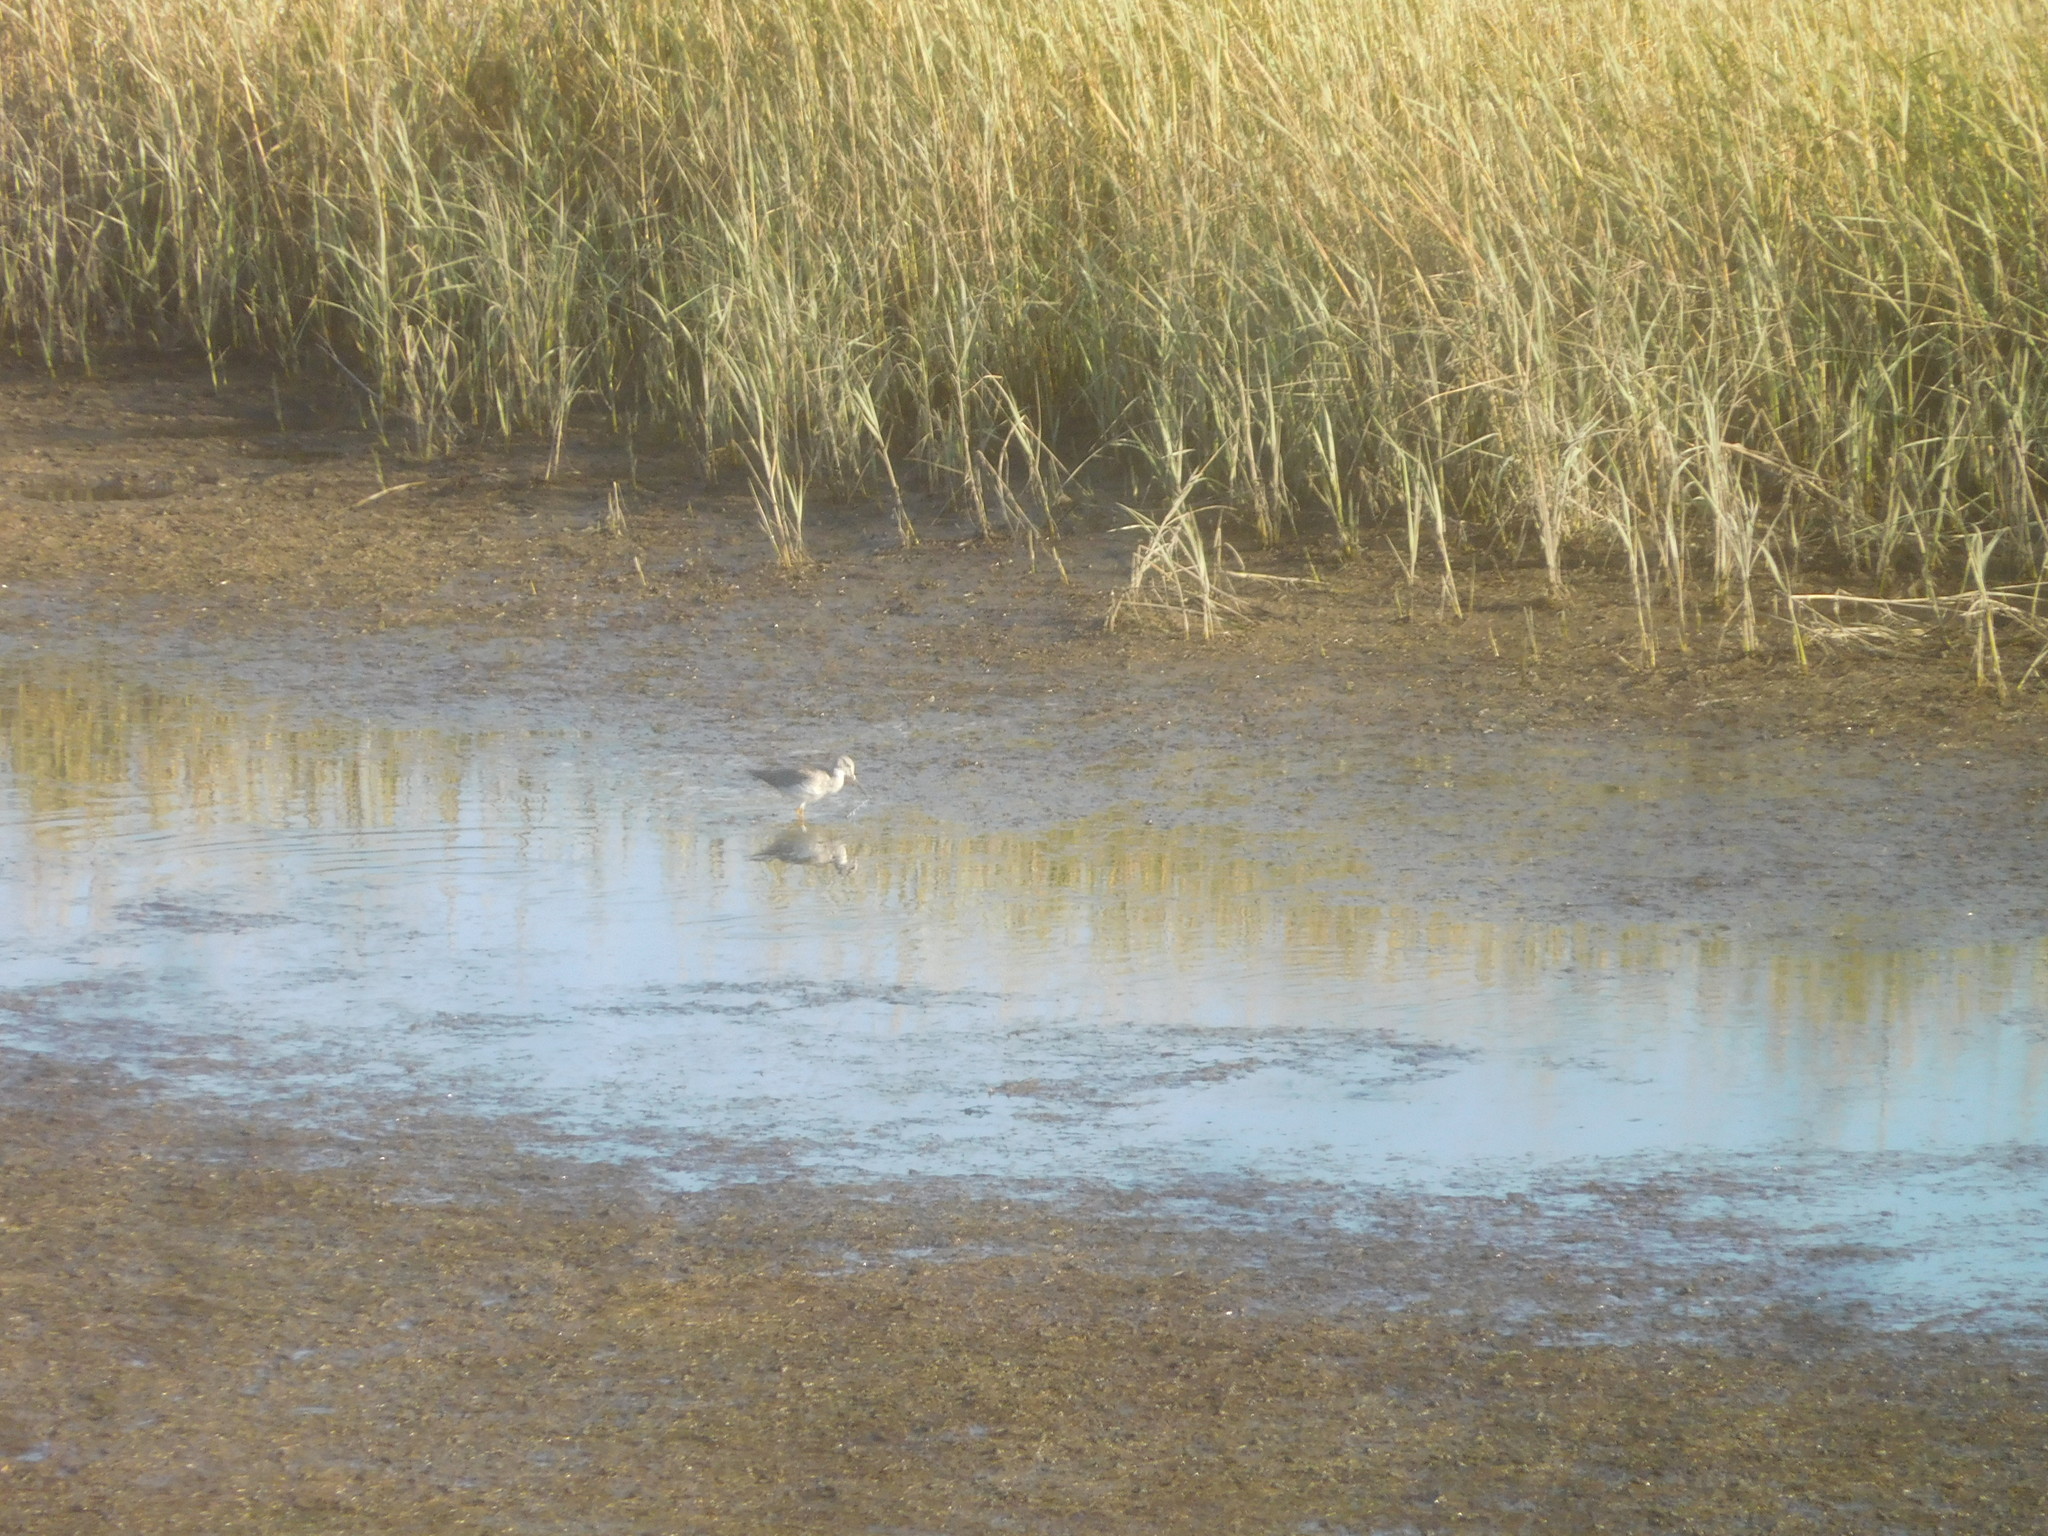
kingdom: Animalia
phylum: Chordata
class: Aves
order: Charadriiformes
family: Scolopacidae
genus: Tringa
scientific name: Tringa melanoleuca
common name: Greater yellowlegs
